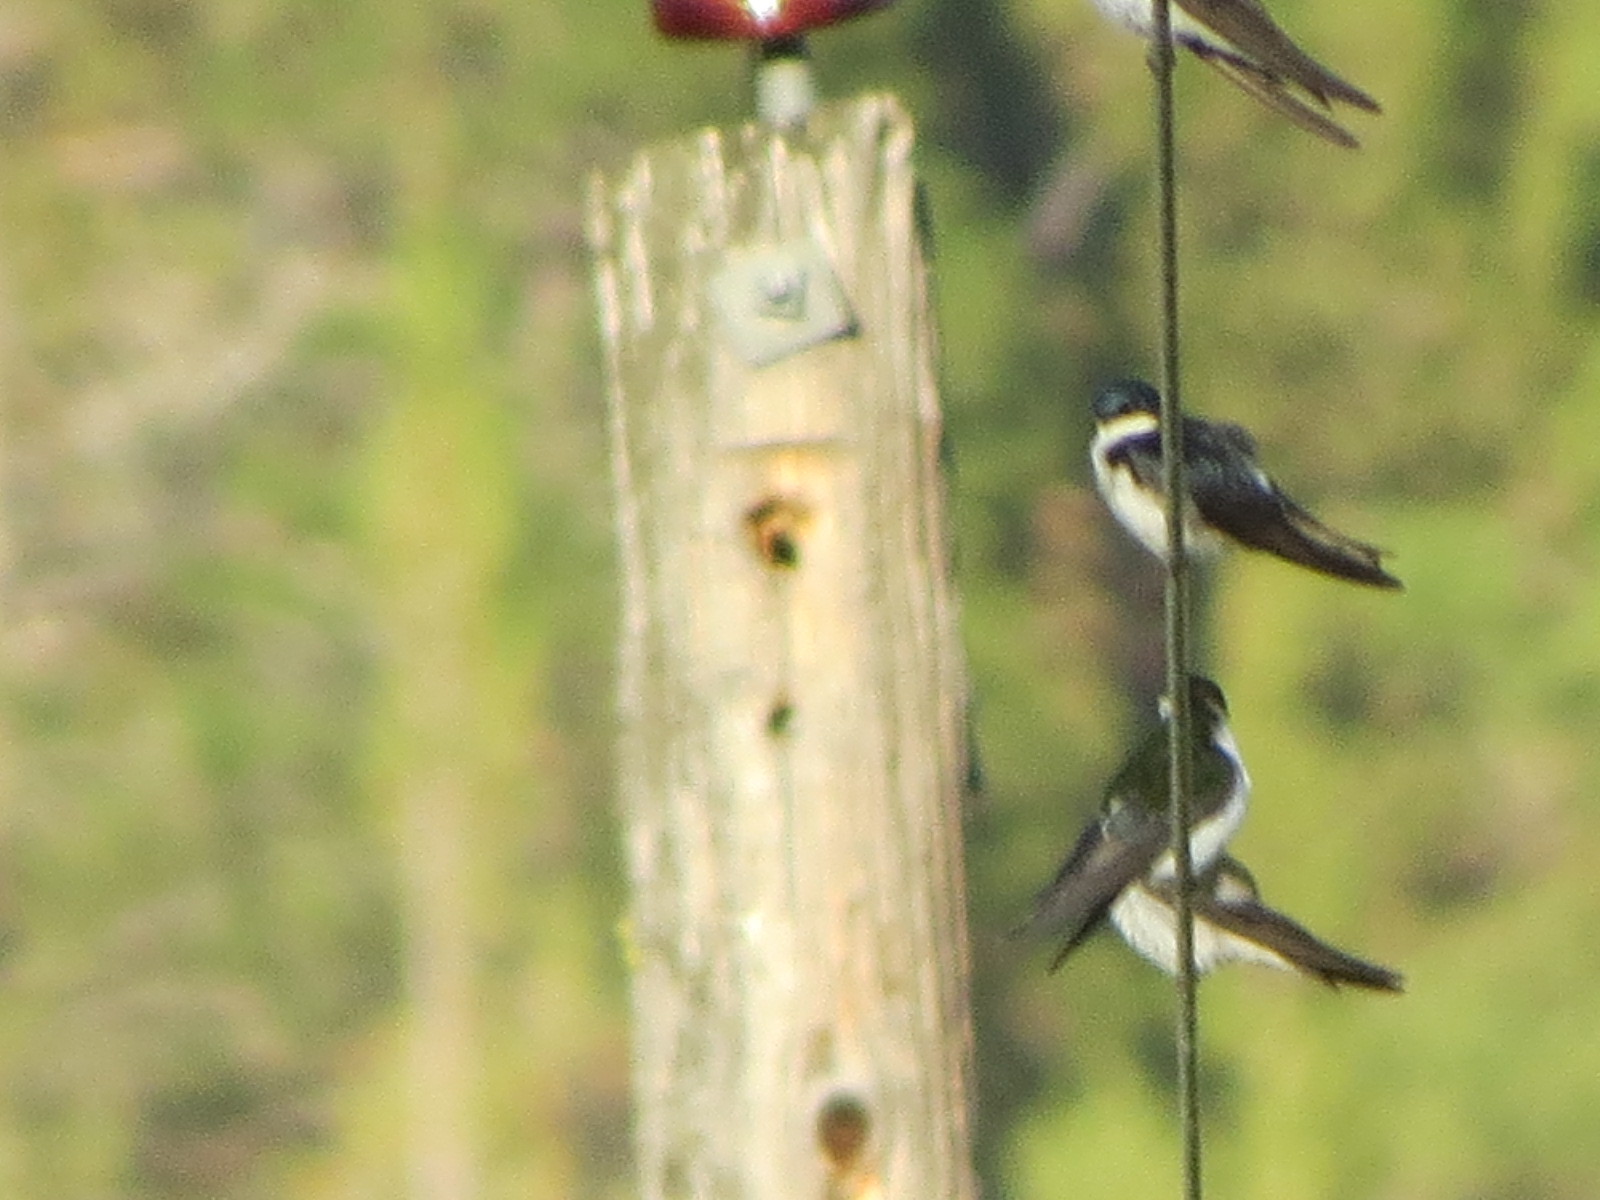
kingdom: Animalia
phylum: Chordata
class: Aves
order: Passeriformes
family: Hirundinidae
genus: Tachycineta
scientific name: Tachycineta bicolor
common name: Tree swallow
